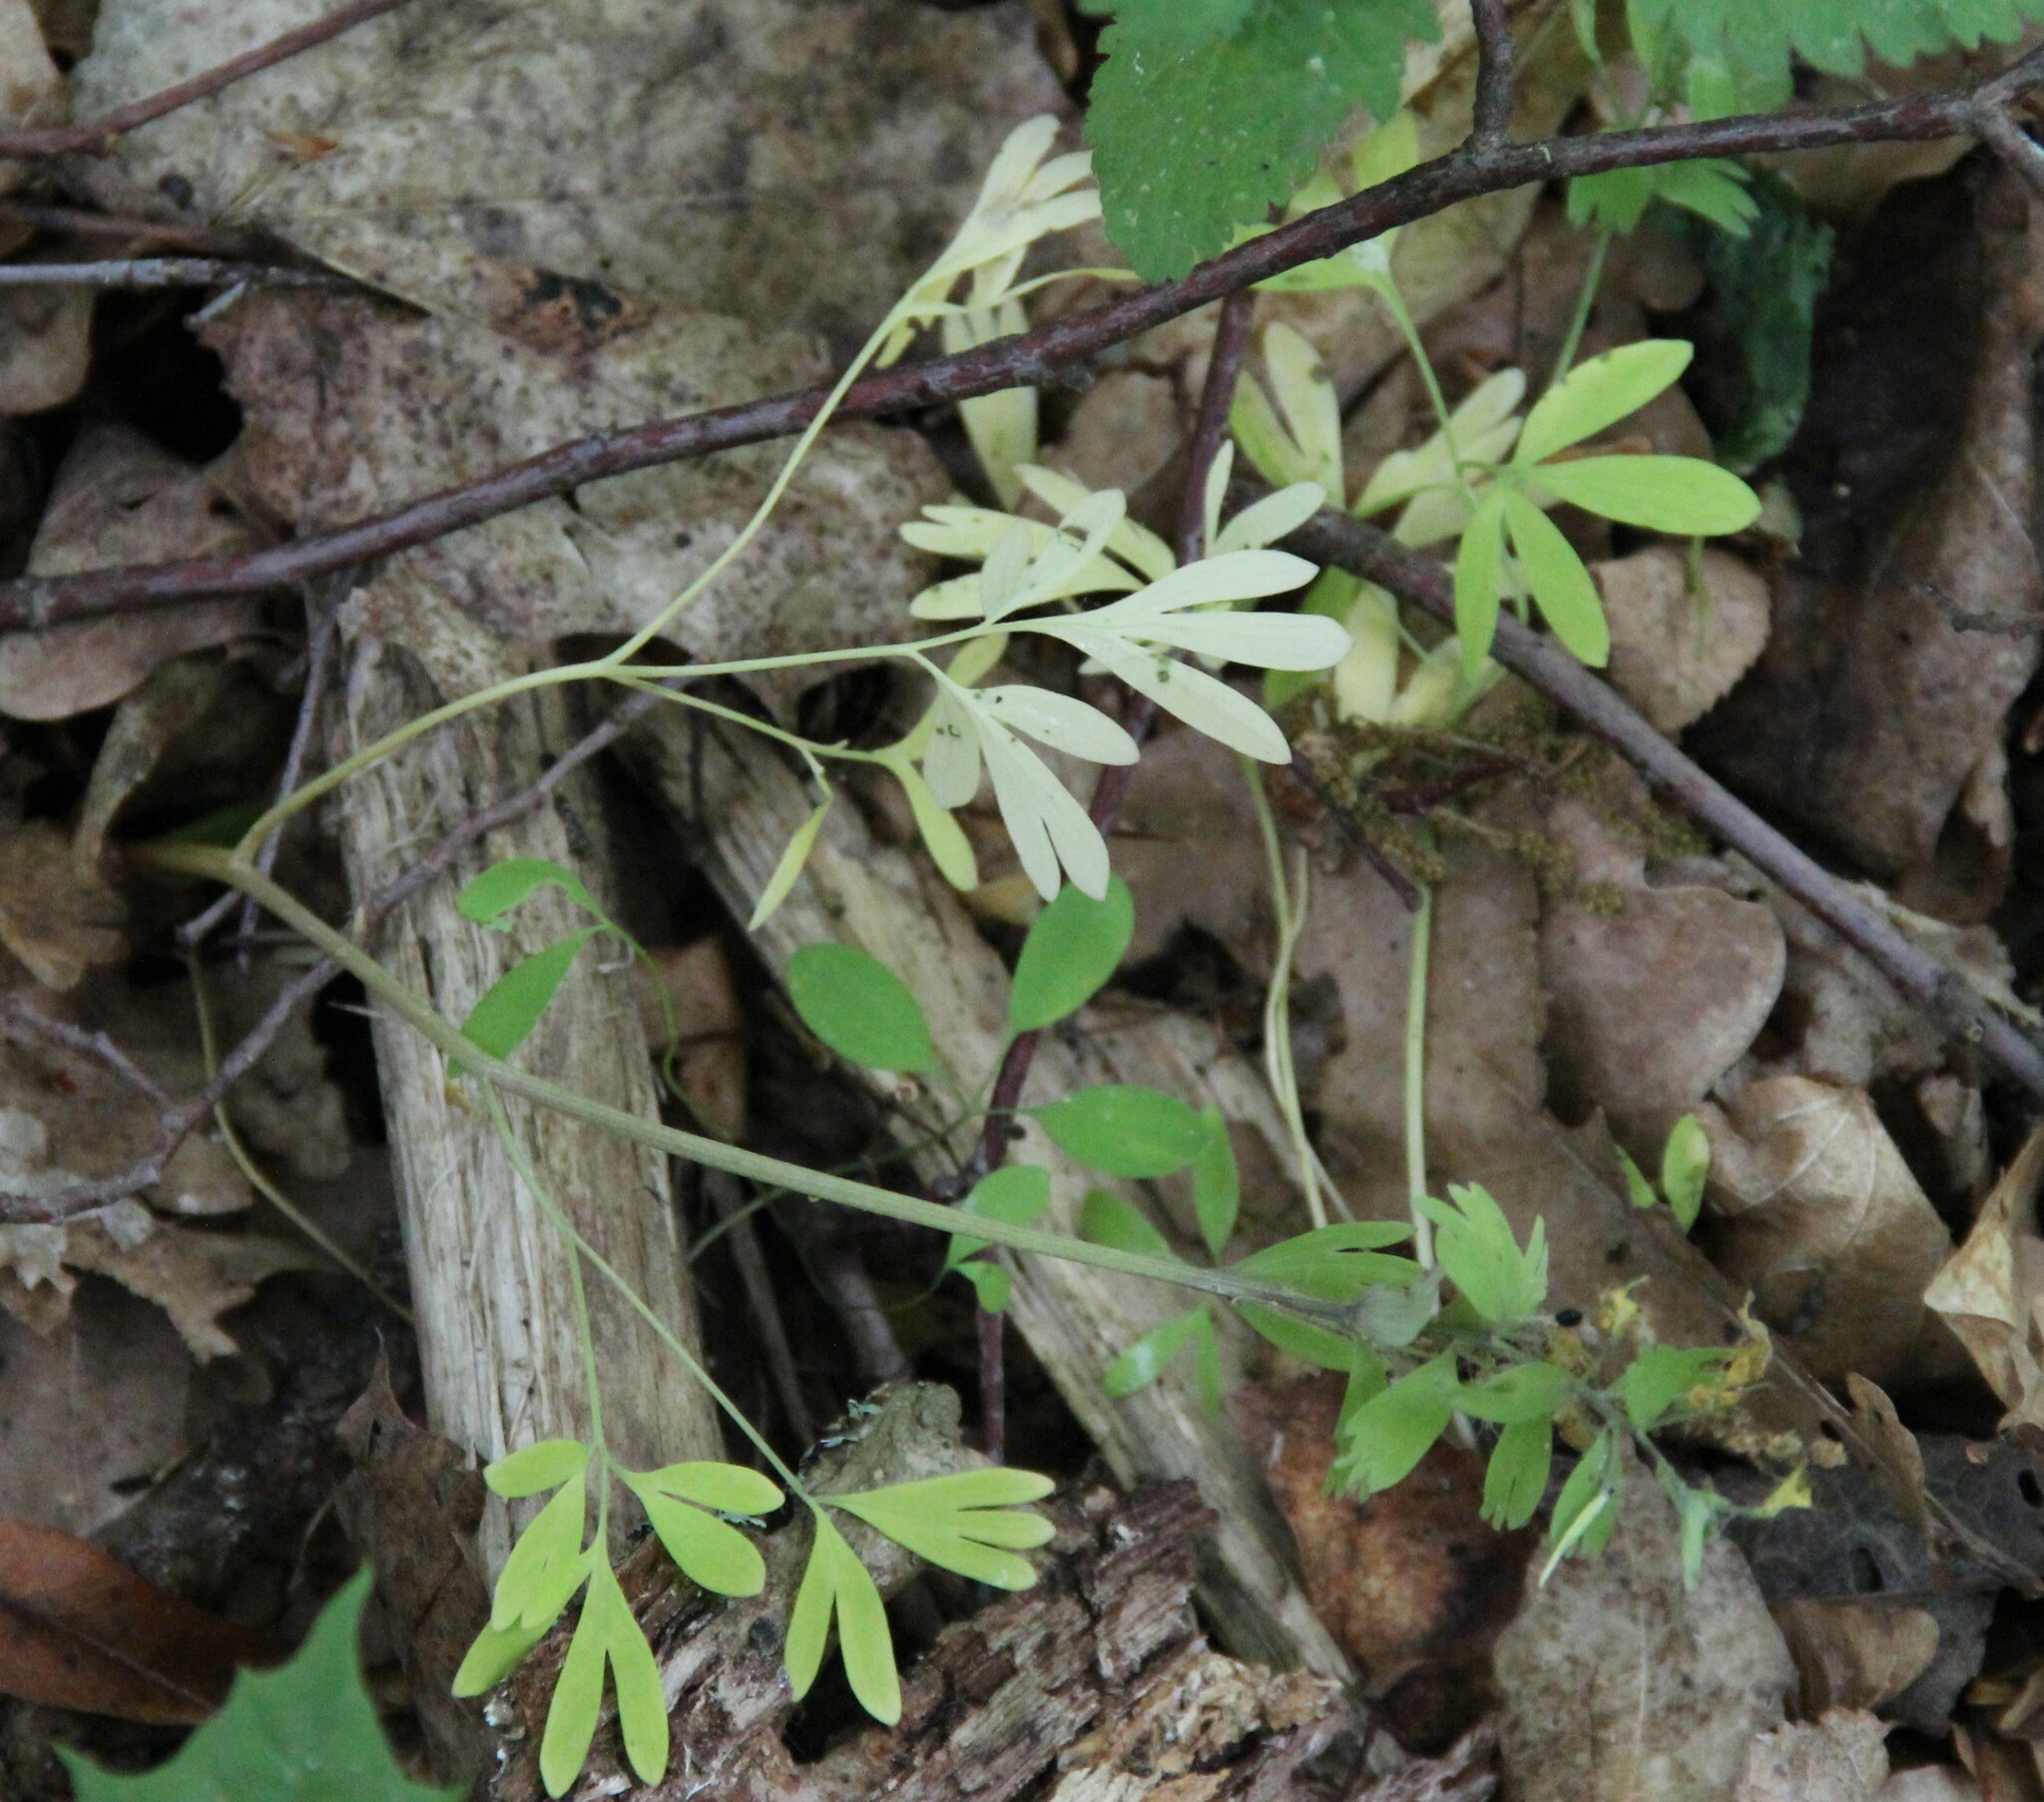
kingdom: Plantae
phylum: Tracheophyta
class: Magnoliopsida
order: Ranunculales
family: Papaveraceae
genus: Corydalis
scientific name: Corydalis solida
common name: Bird-in-a-bush
